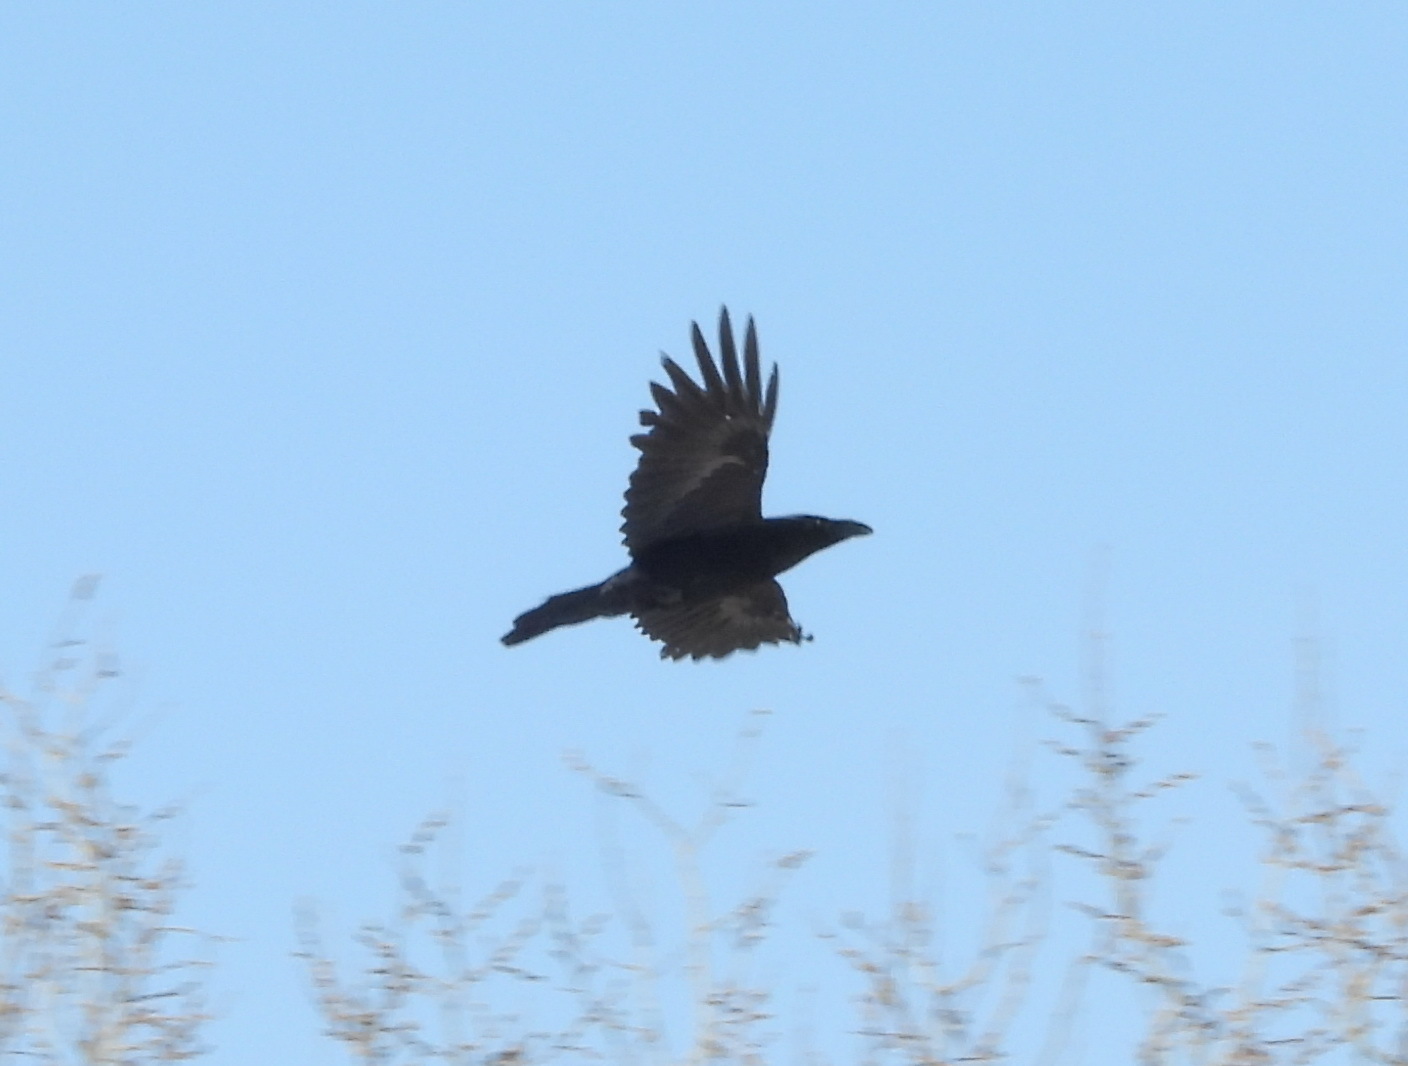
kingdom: Animalia
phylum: Chordata
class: Aves
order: Passeriformes
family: Corvidae
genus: Corvus
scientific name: Corvus corax
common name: Common raven
